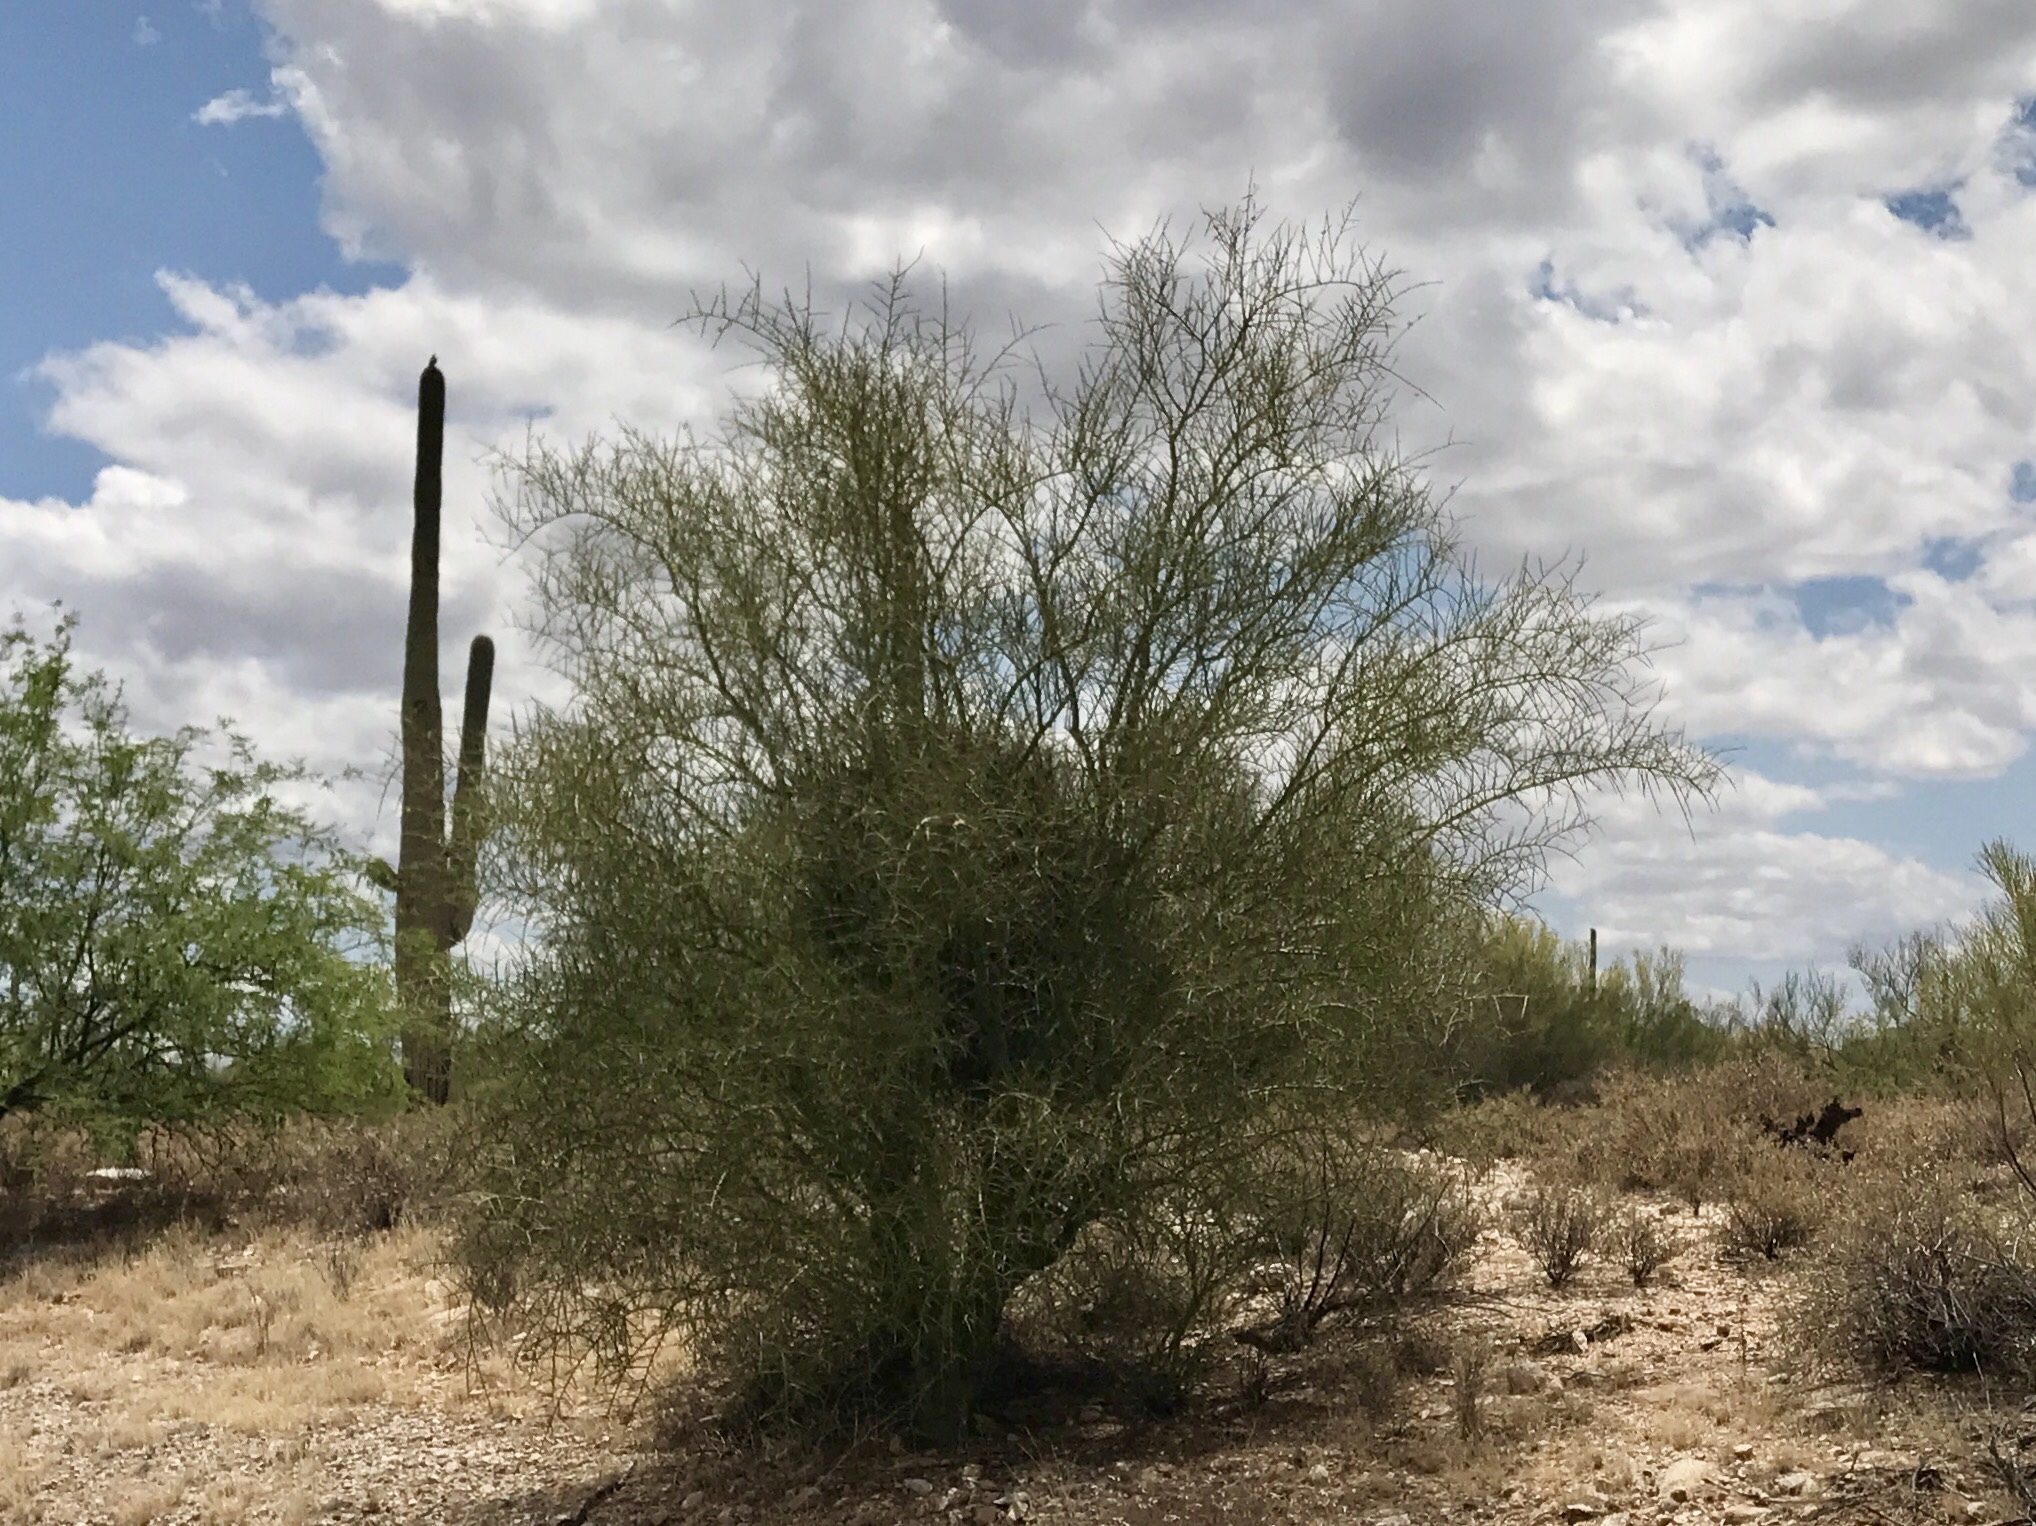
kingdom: Plantae
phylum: Tracheophyta
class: Magnoliopsida
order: Fabales
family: Fabaceae
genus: Parkinsonia
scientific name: Parkinsonia florida
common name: Blue paloverde
